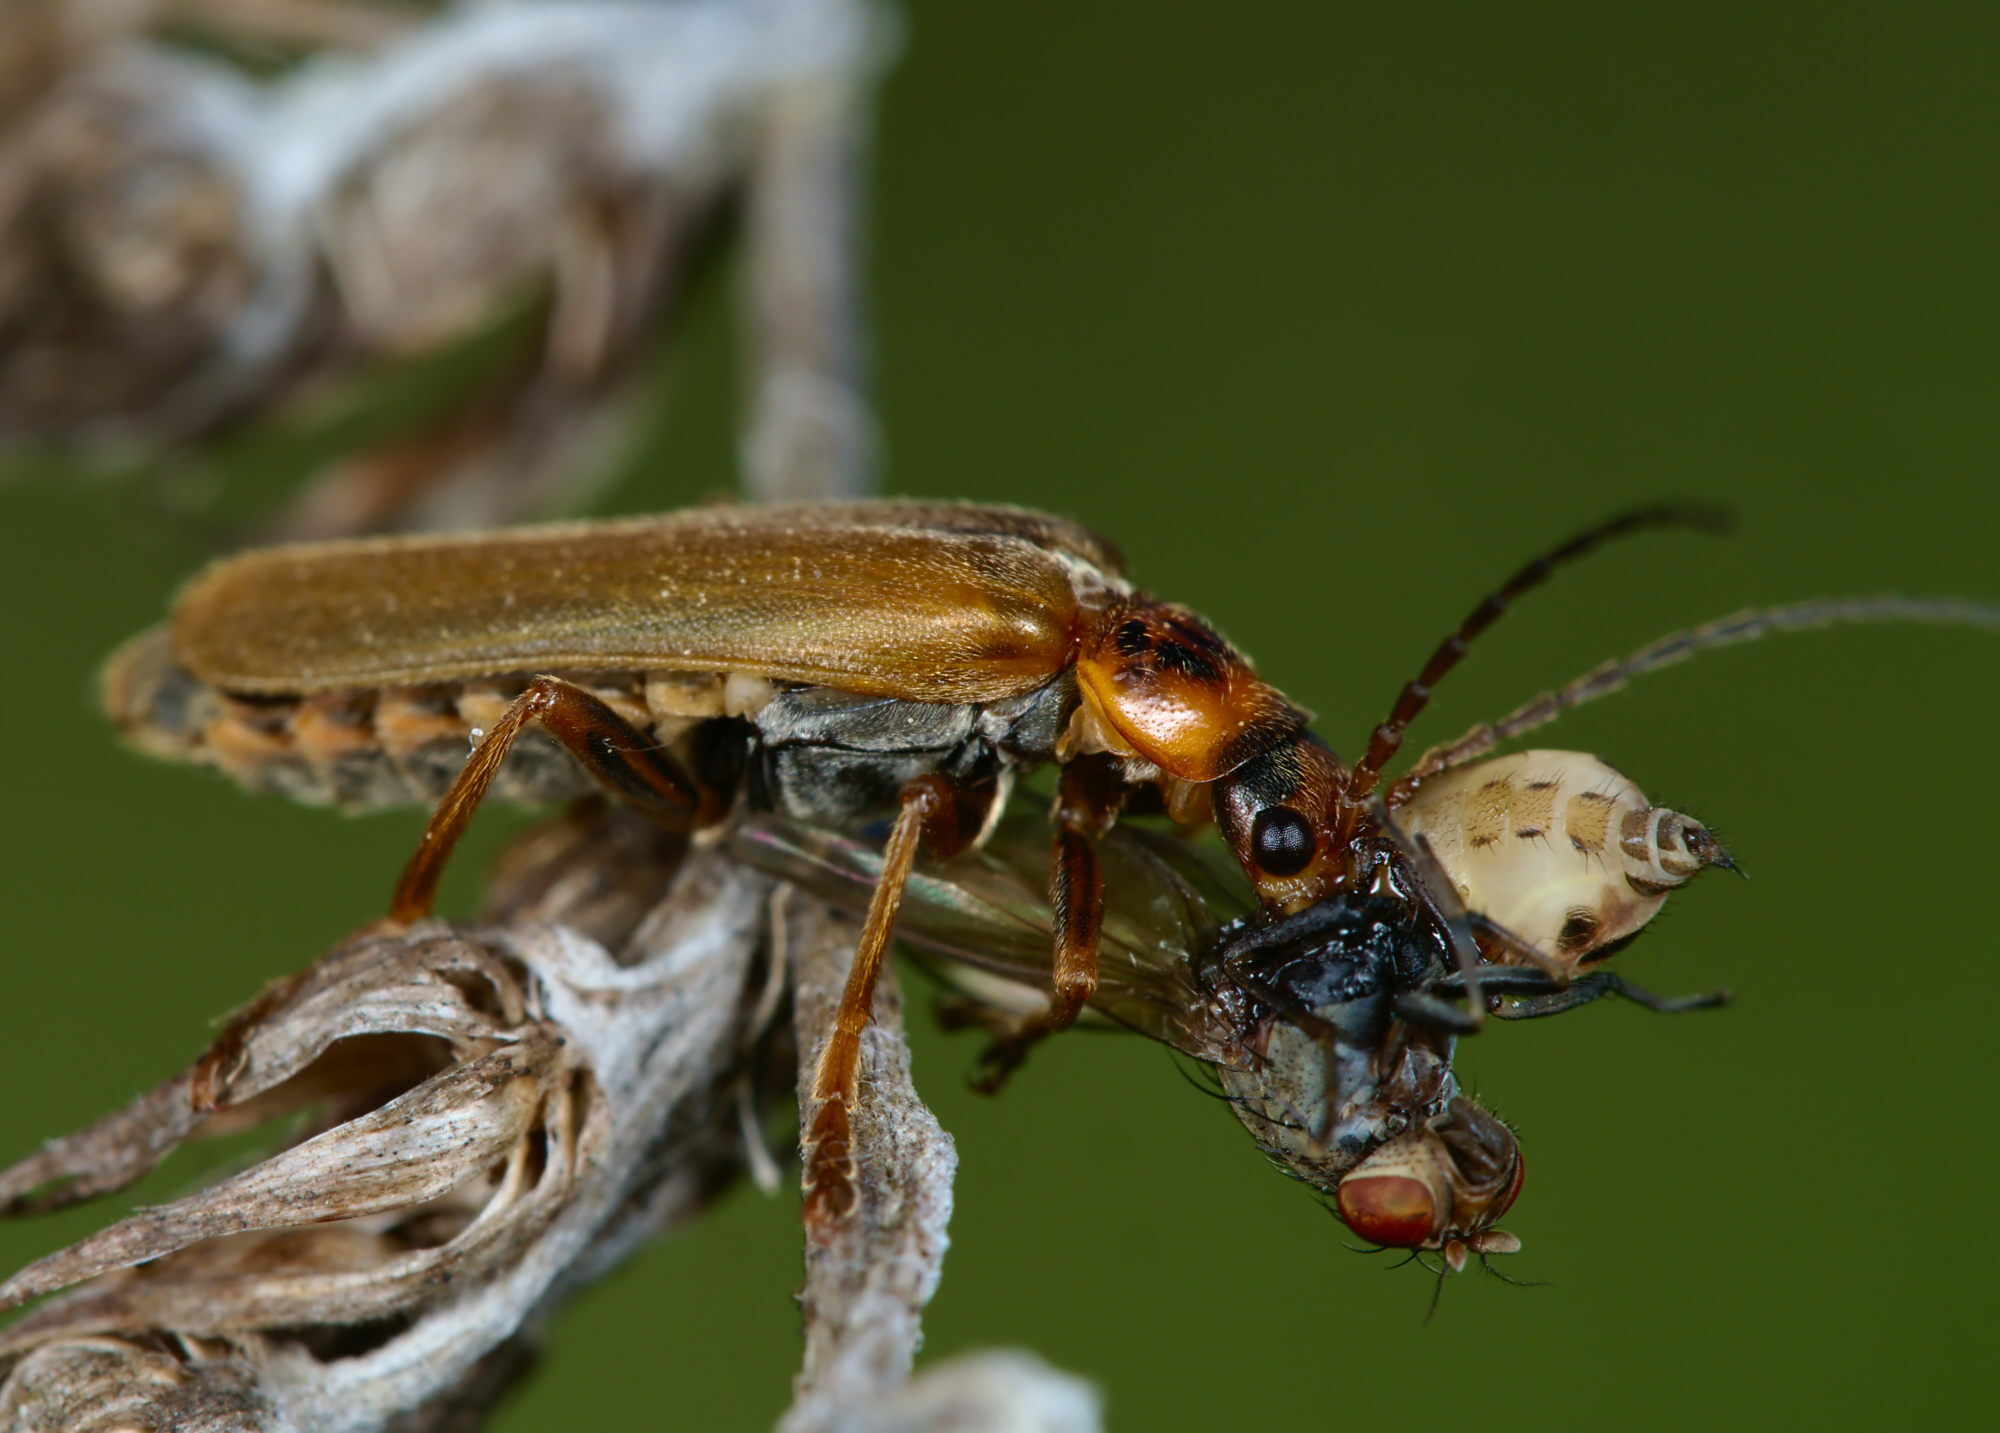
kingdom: Animalia
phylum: Arthropoda
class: Insecta
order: Coleoptera
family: Cantharidae
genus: Cantharis
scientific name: Cantharis rufa
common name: Red-spotted soldier beetle
